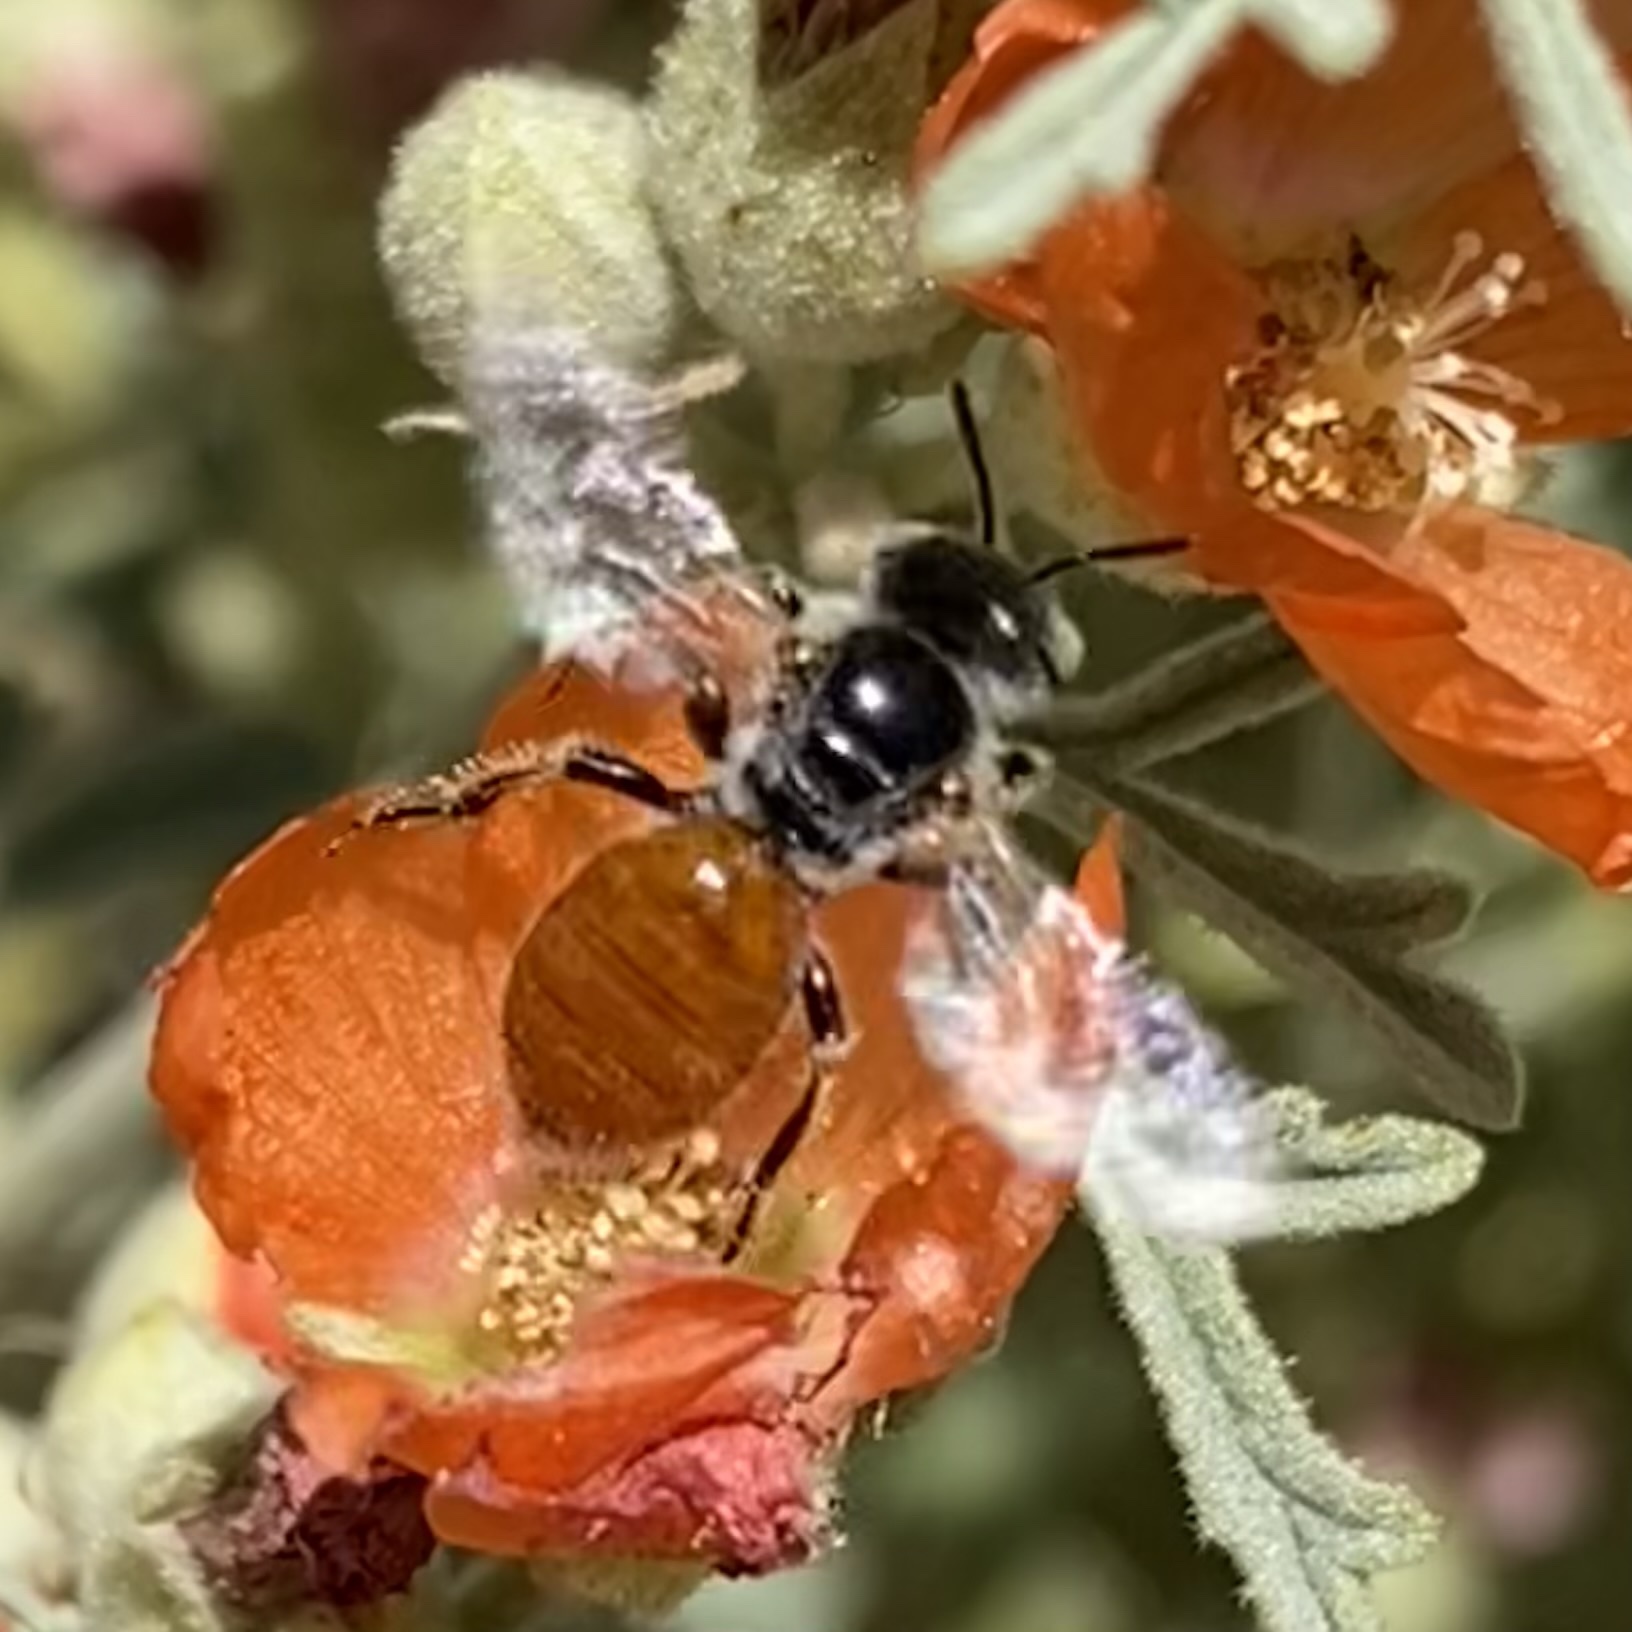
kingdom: Animalia
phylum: Arthropoda
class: Insecta
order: Hymenoptera
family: Andrenidae
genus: Calliopsis
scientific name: Calliopsis subalpina
